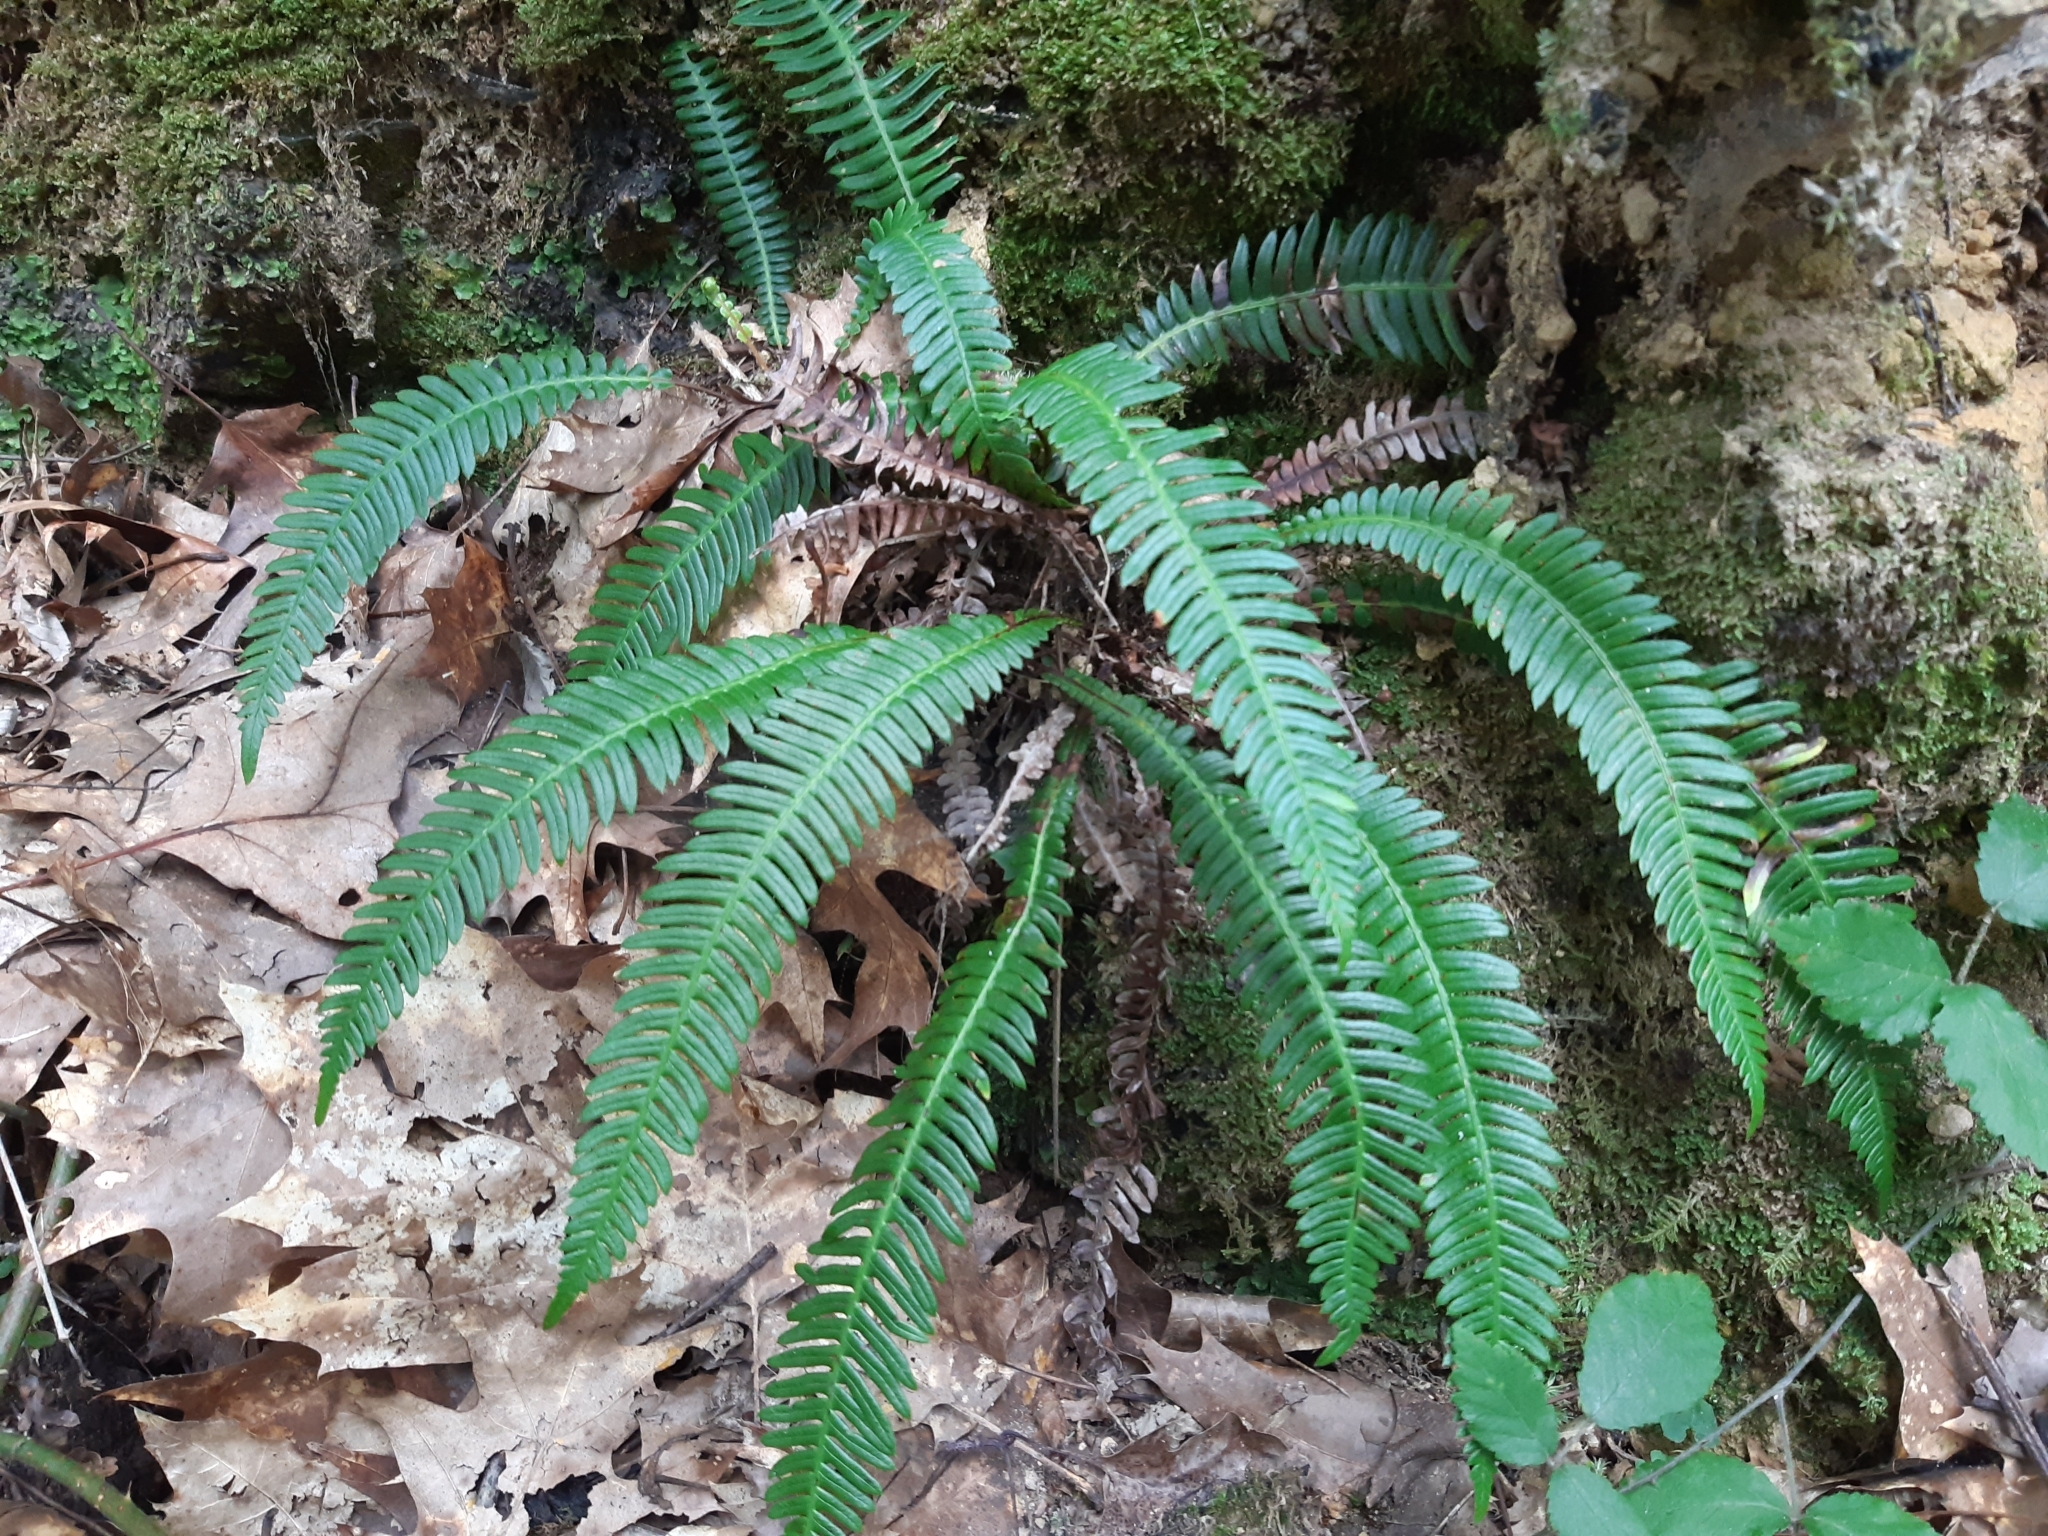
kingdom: Plantae
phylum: Tracheophyta
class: Polypodiopsida
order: Polypodiales
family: Blechnaceae
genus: Struthiopteris
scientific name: Struthiopteris spicant
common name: Deer fern
